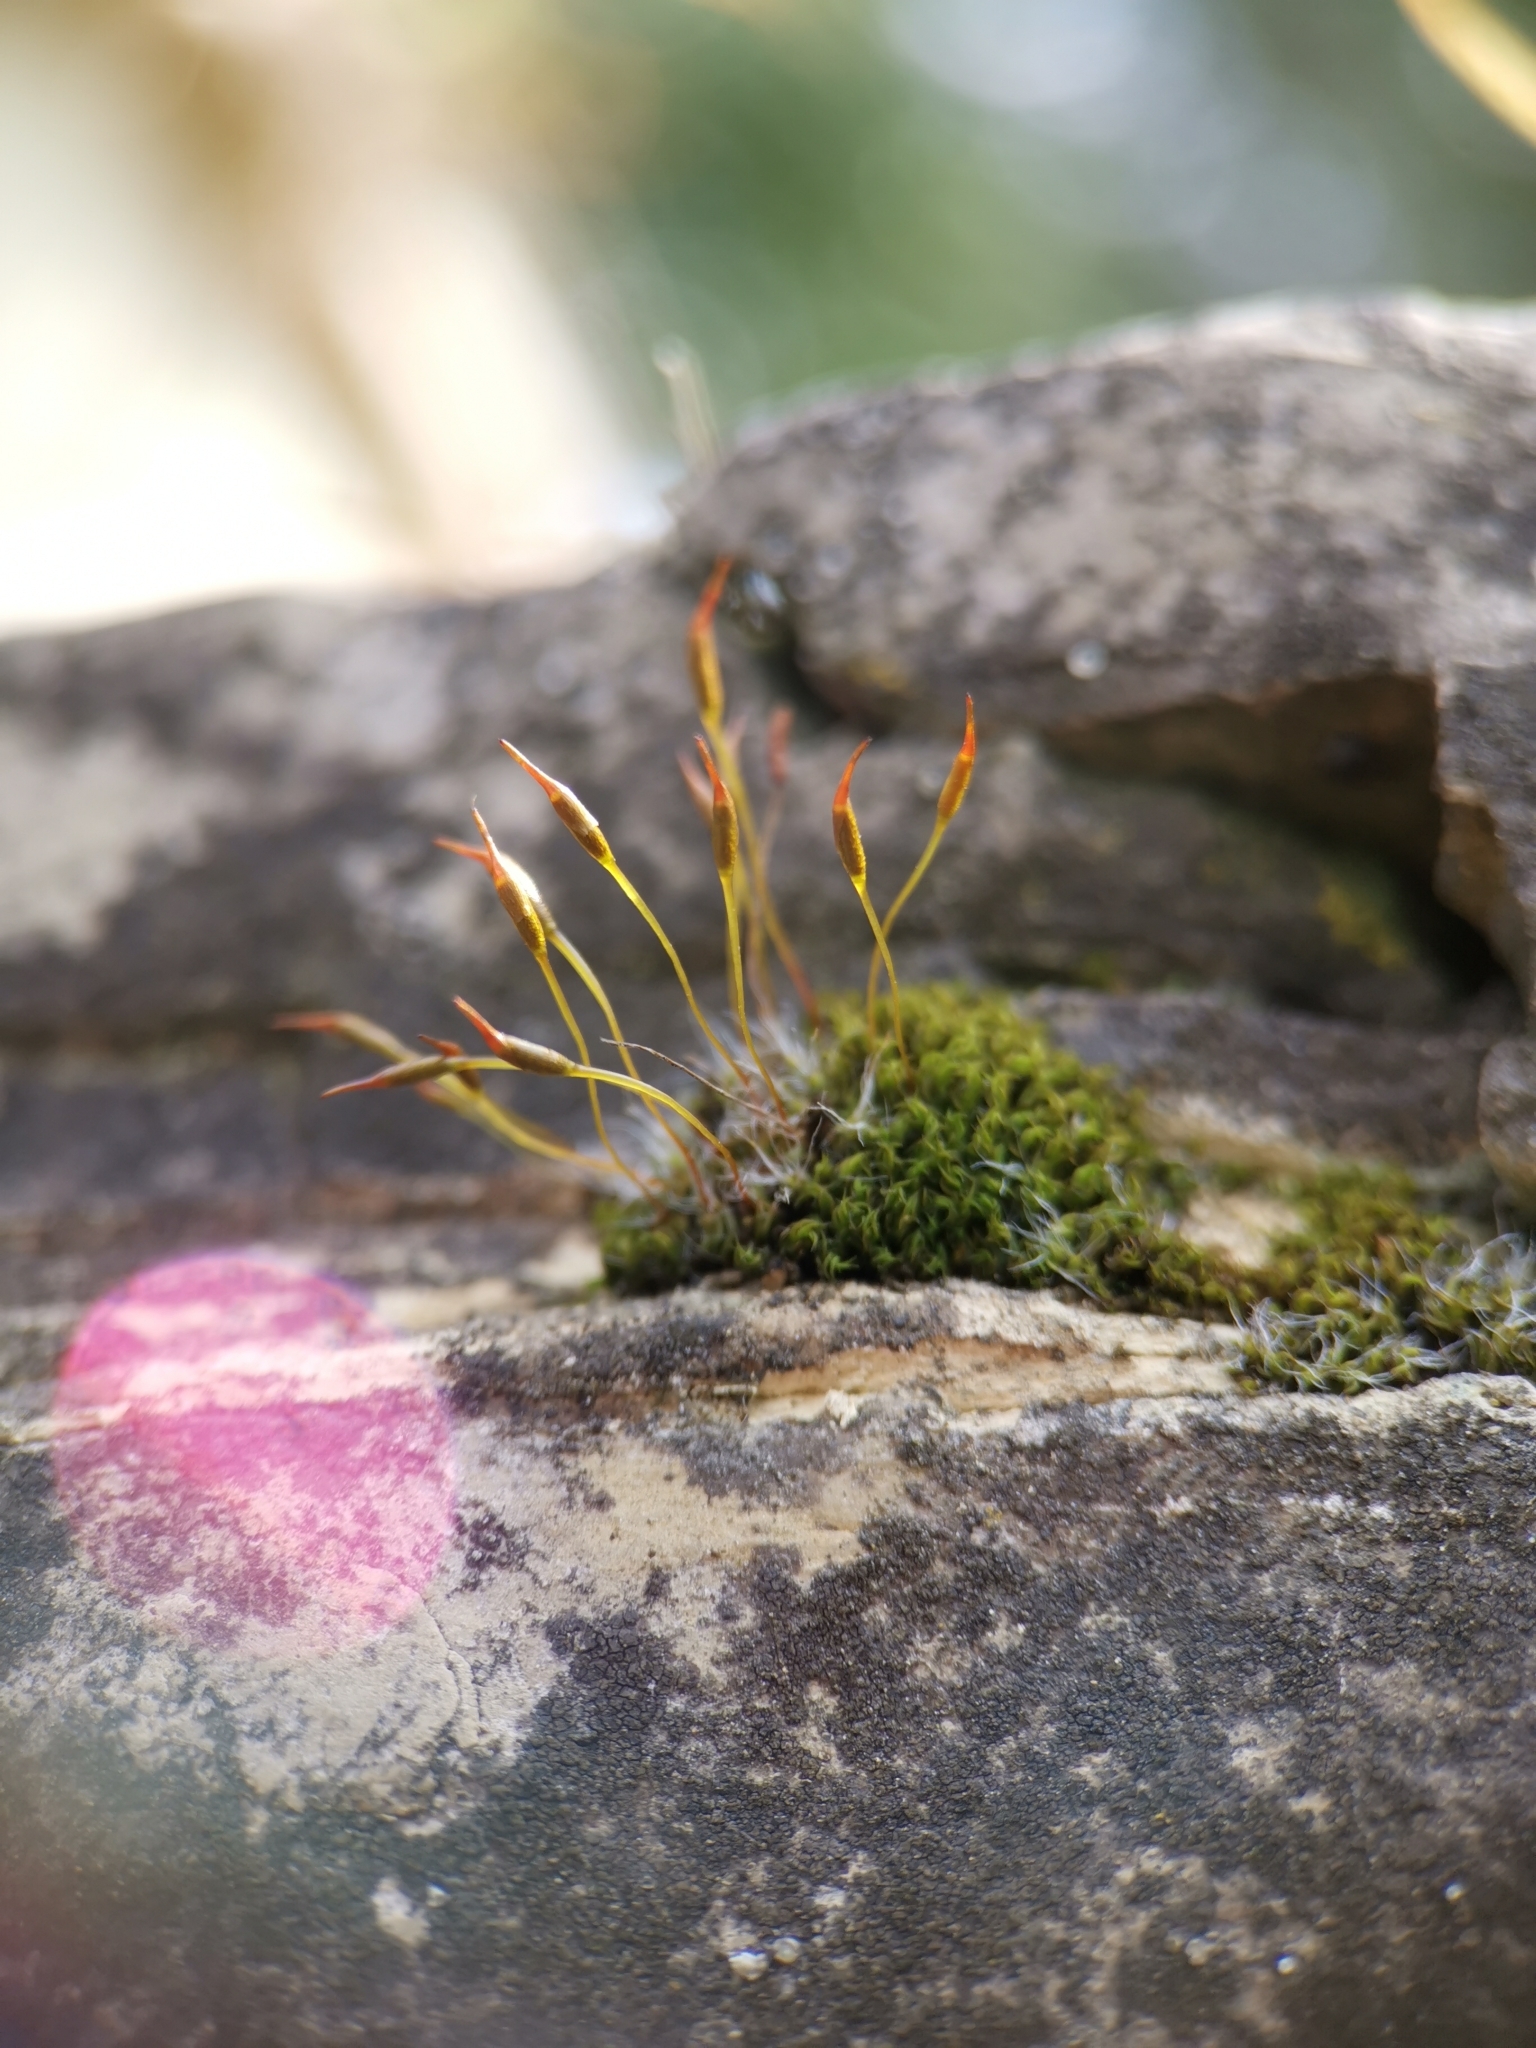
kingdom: Plantae
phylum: Bryophyta
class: Bryopsida
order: Pottiales
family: Pottiaceae
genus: Tortula
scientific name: Tortula muralis
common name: Wall screw-moss
